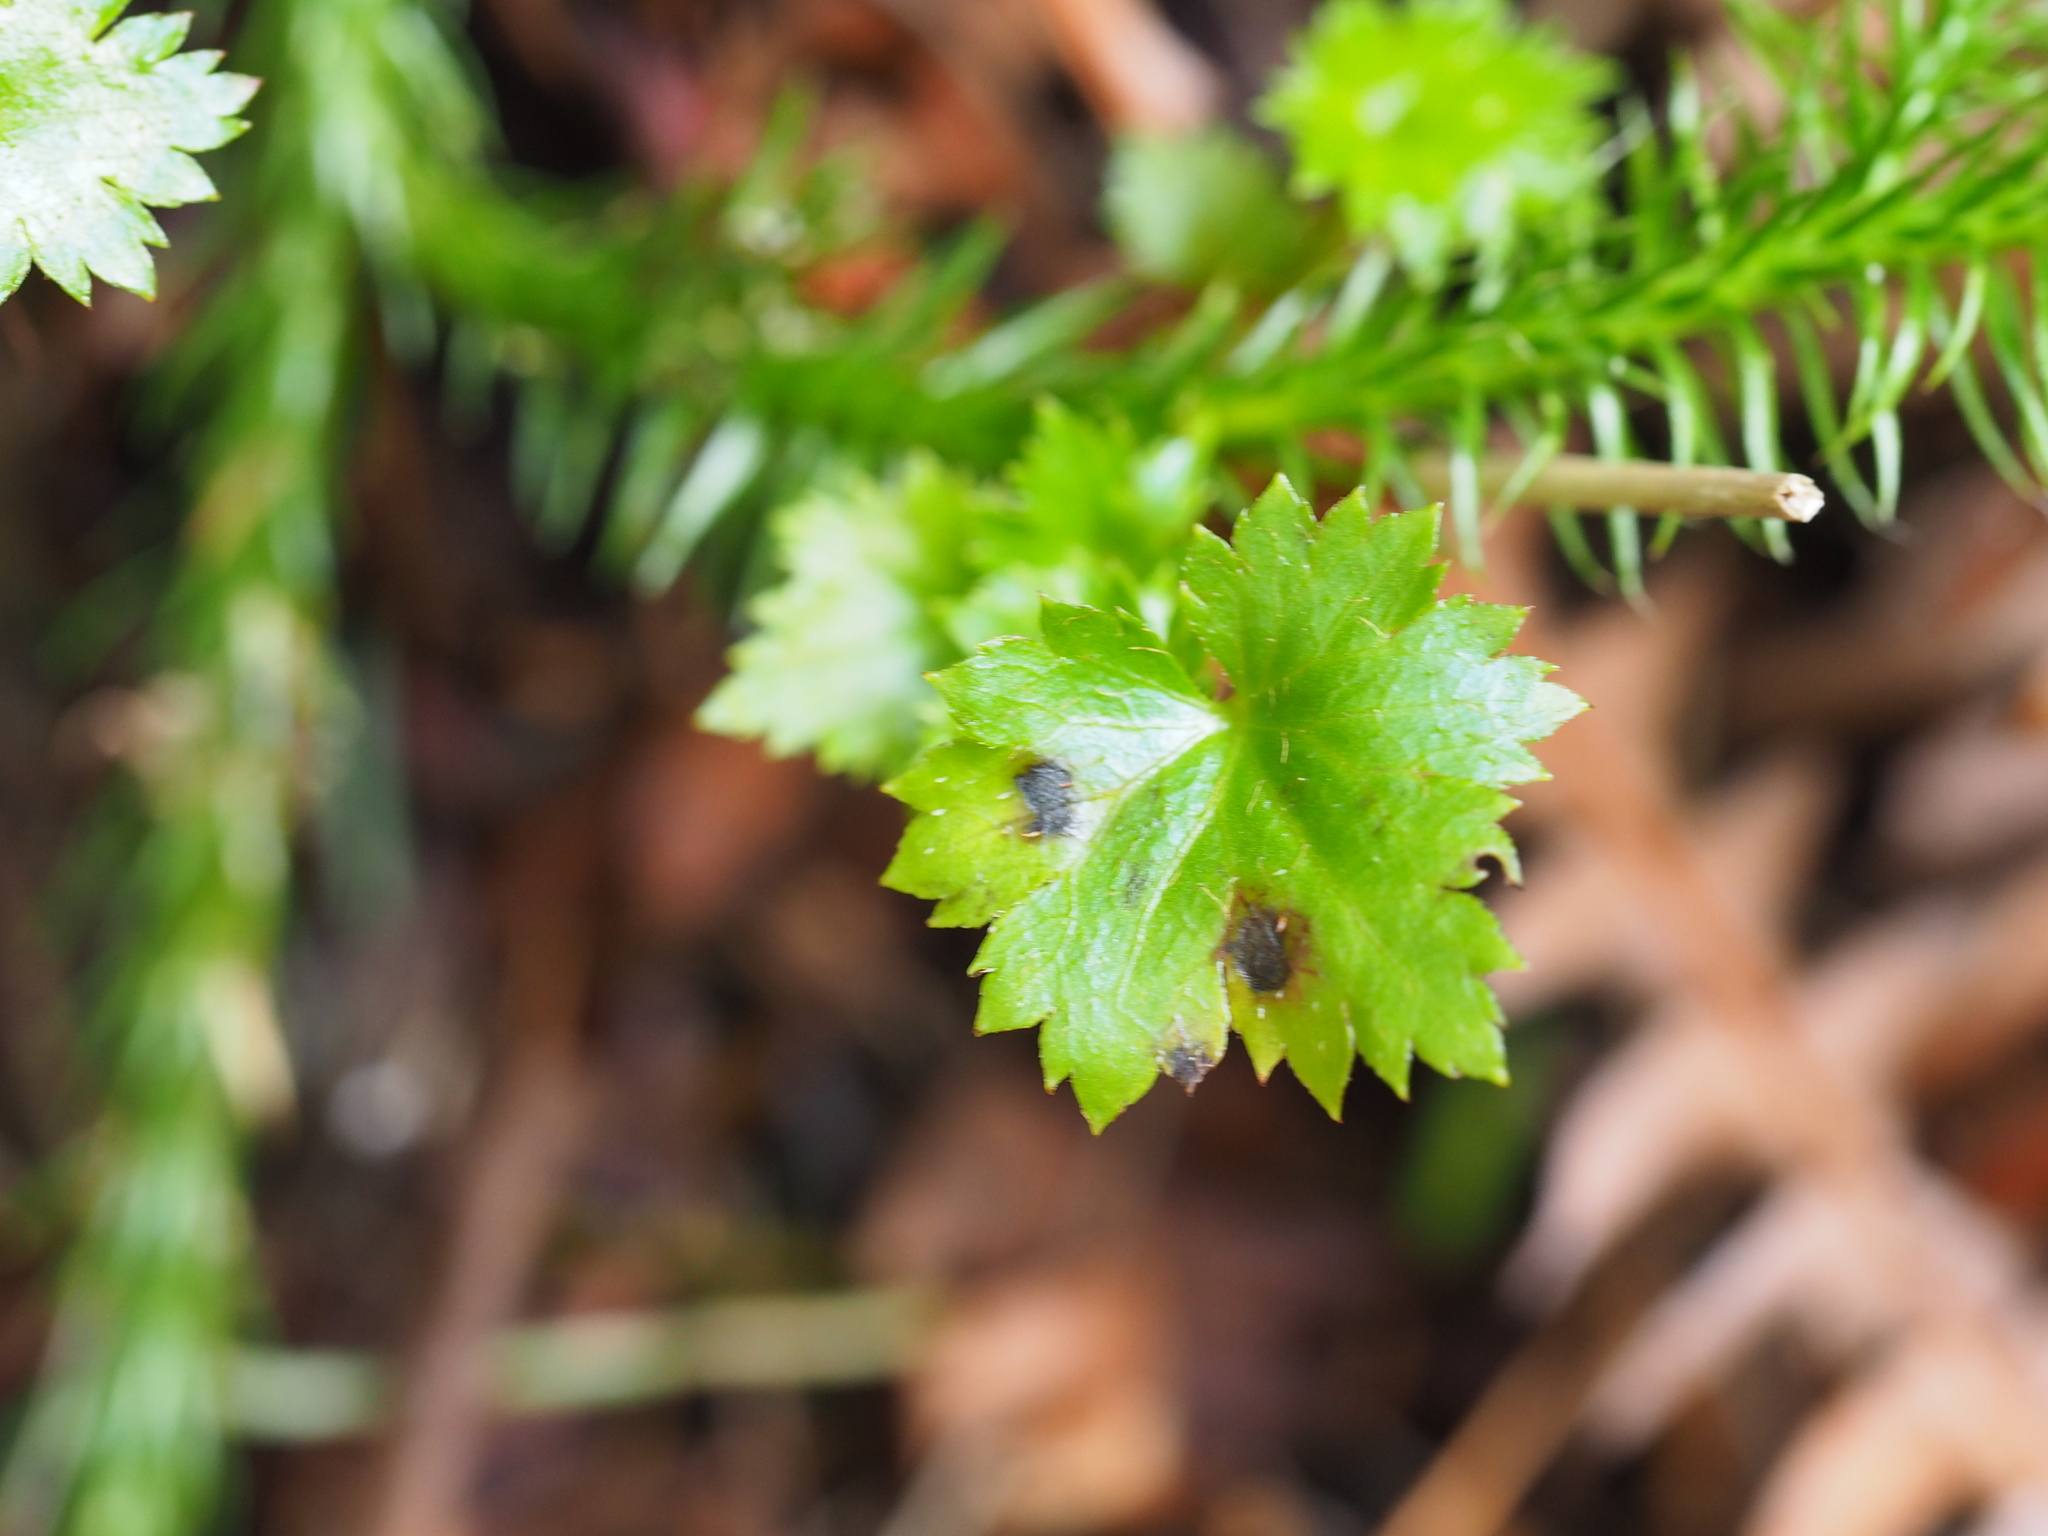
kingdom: Plantae
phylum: Tracheophyta
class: Magnoliopsida
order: Saxifragales
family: Saxifragaceae
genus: Boykinia
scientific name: Boykinia occidentalis
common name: Coast boykinia
